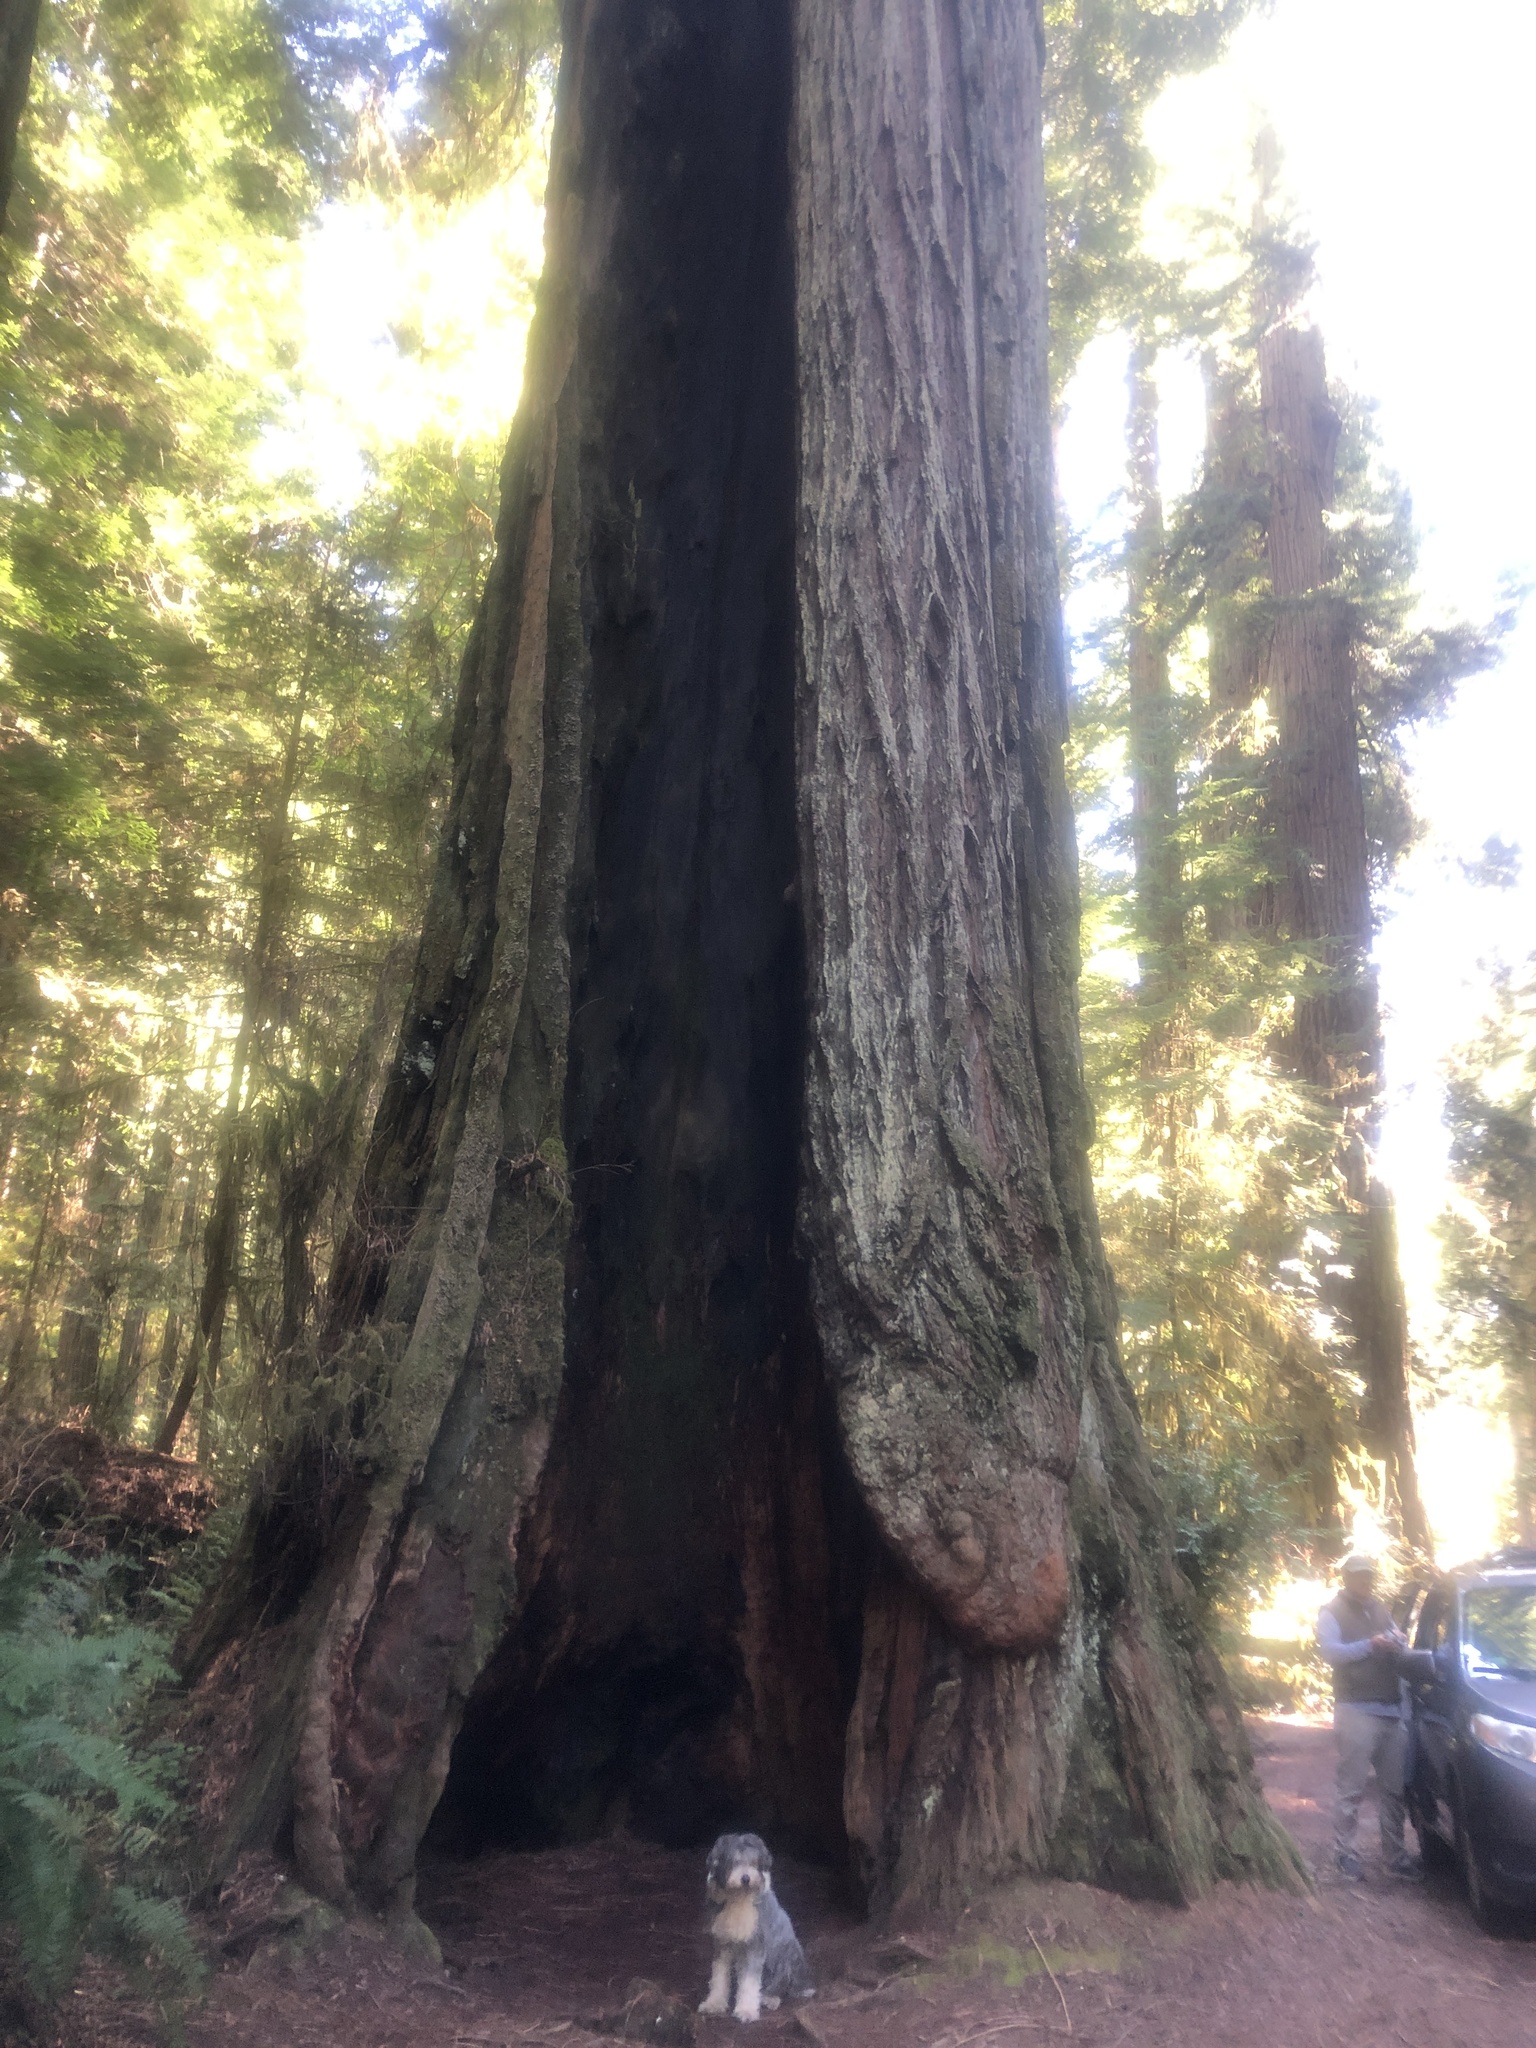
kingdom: Plantae
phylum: Tracheophyta
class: Pinopsida
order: Pinales
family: Cupressaceae
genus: Sequoia
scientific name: Sequoia sempervirens
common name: Coast redwood
